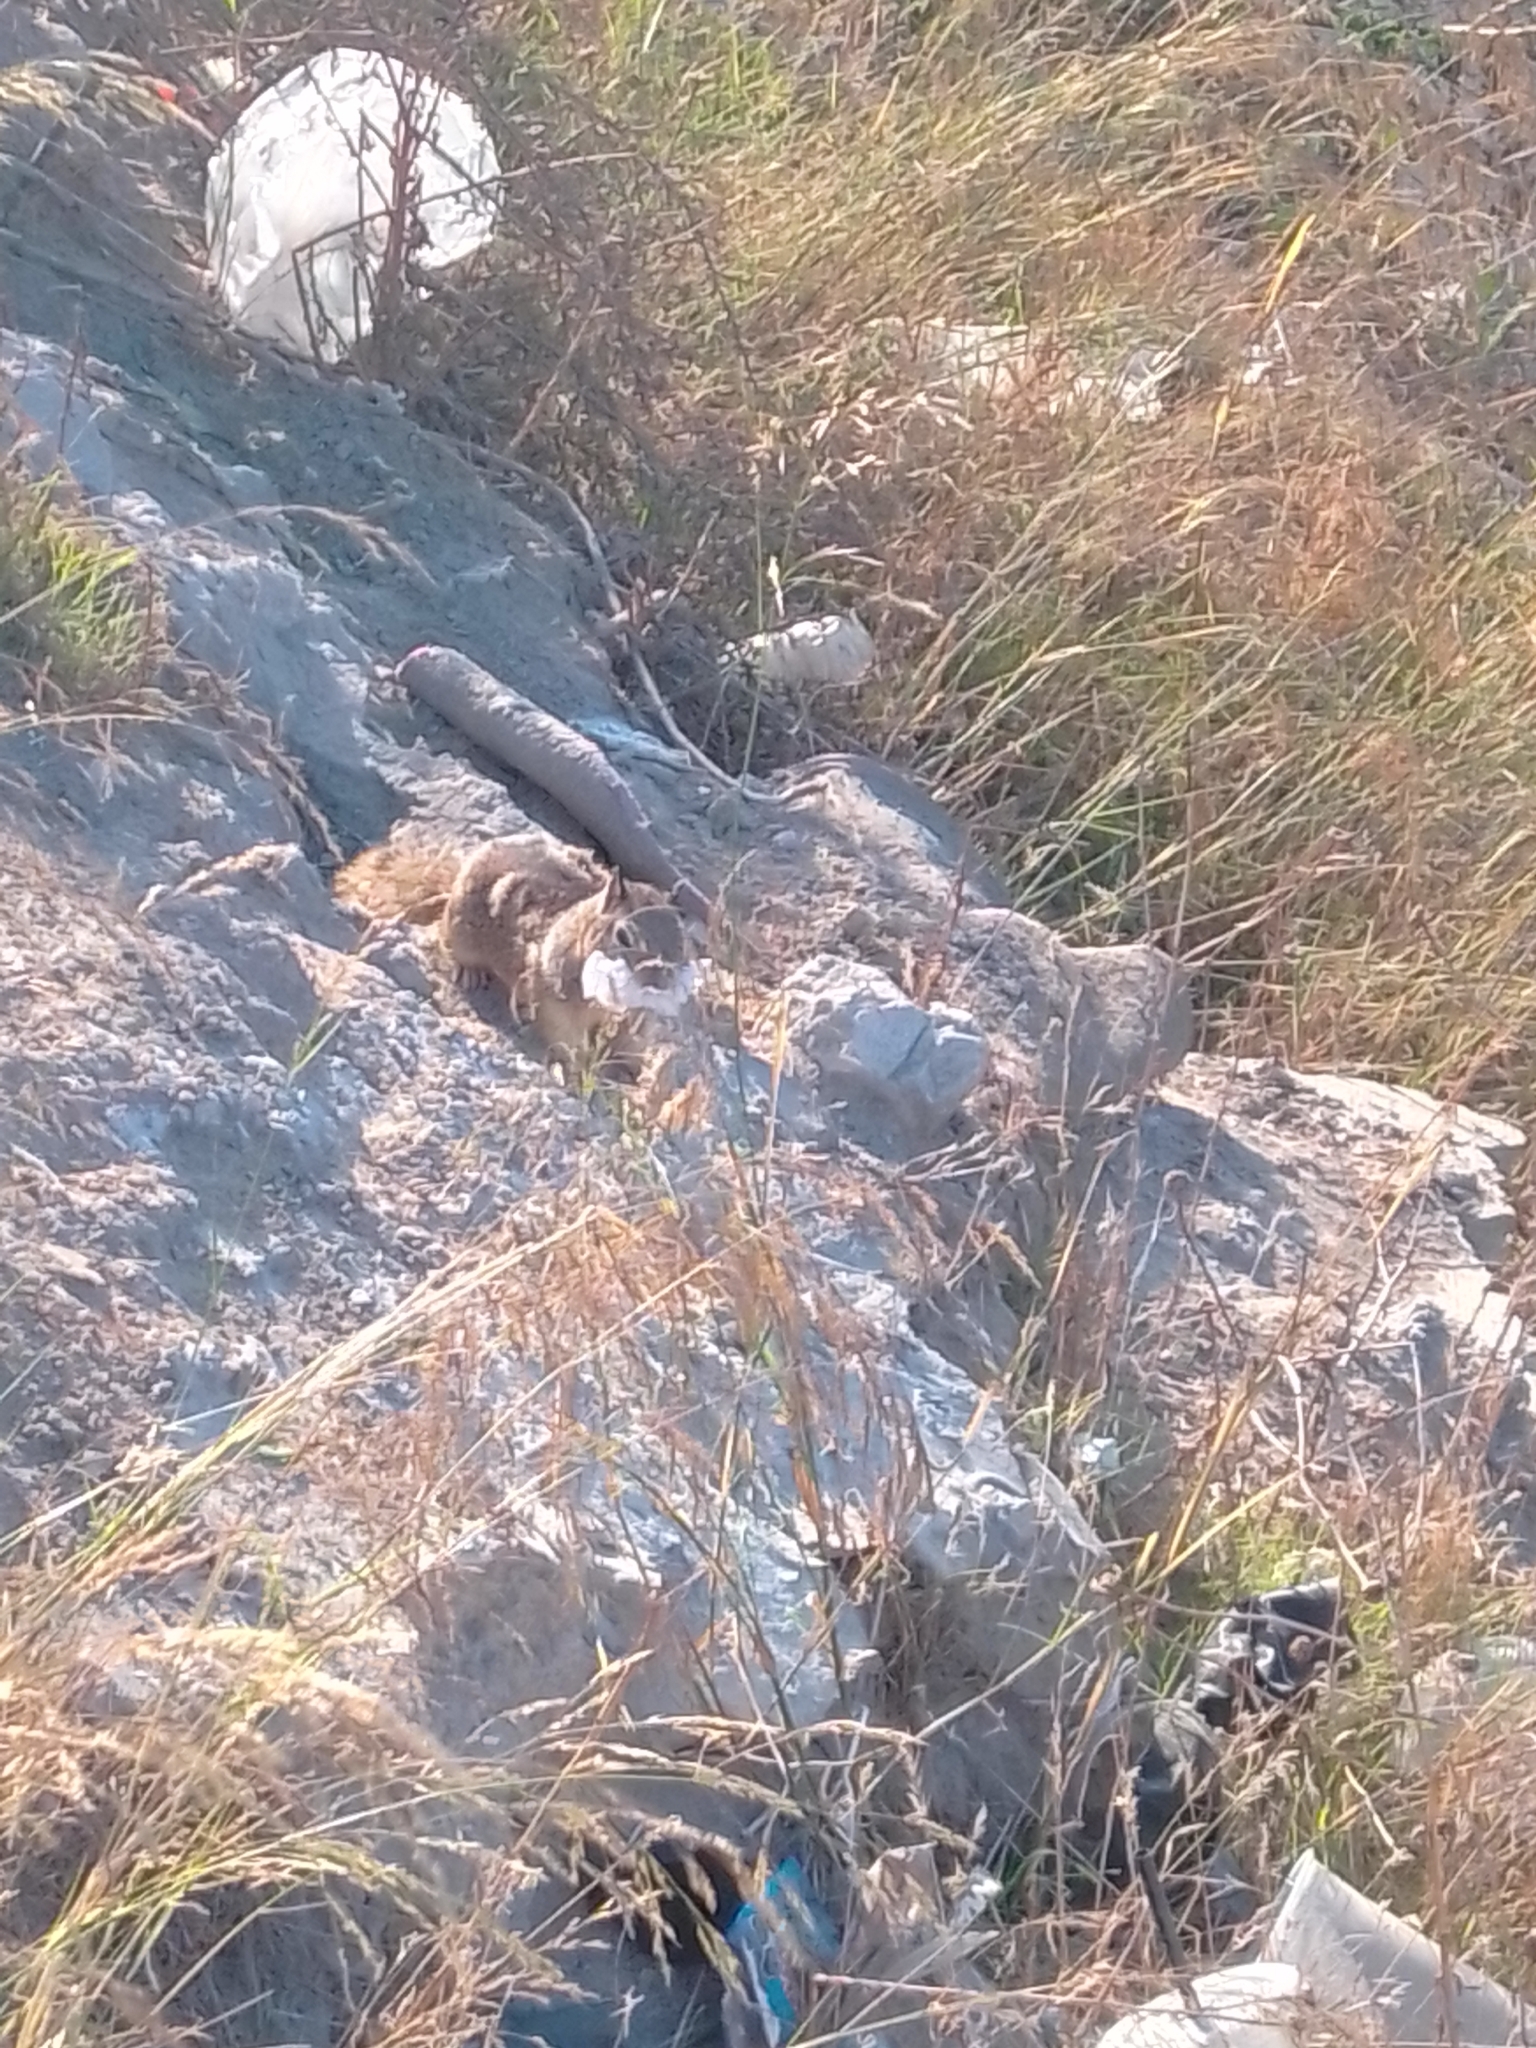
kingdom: Animalia
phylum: Chordata
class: Mammalia
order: Rodentia
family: Sciuridae
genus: Otospermophilus
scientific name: Otospermophilus beecheyi
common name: California ground squirrel
